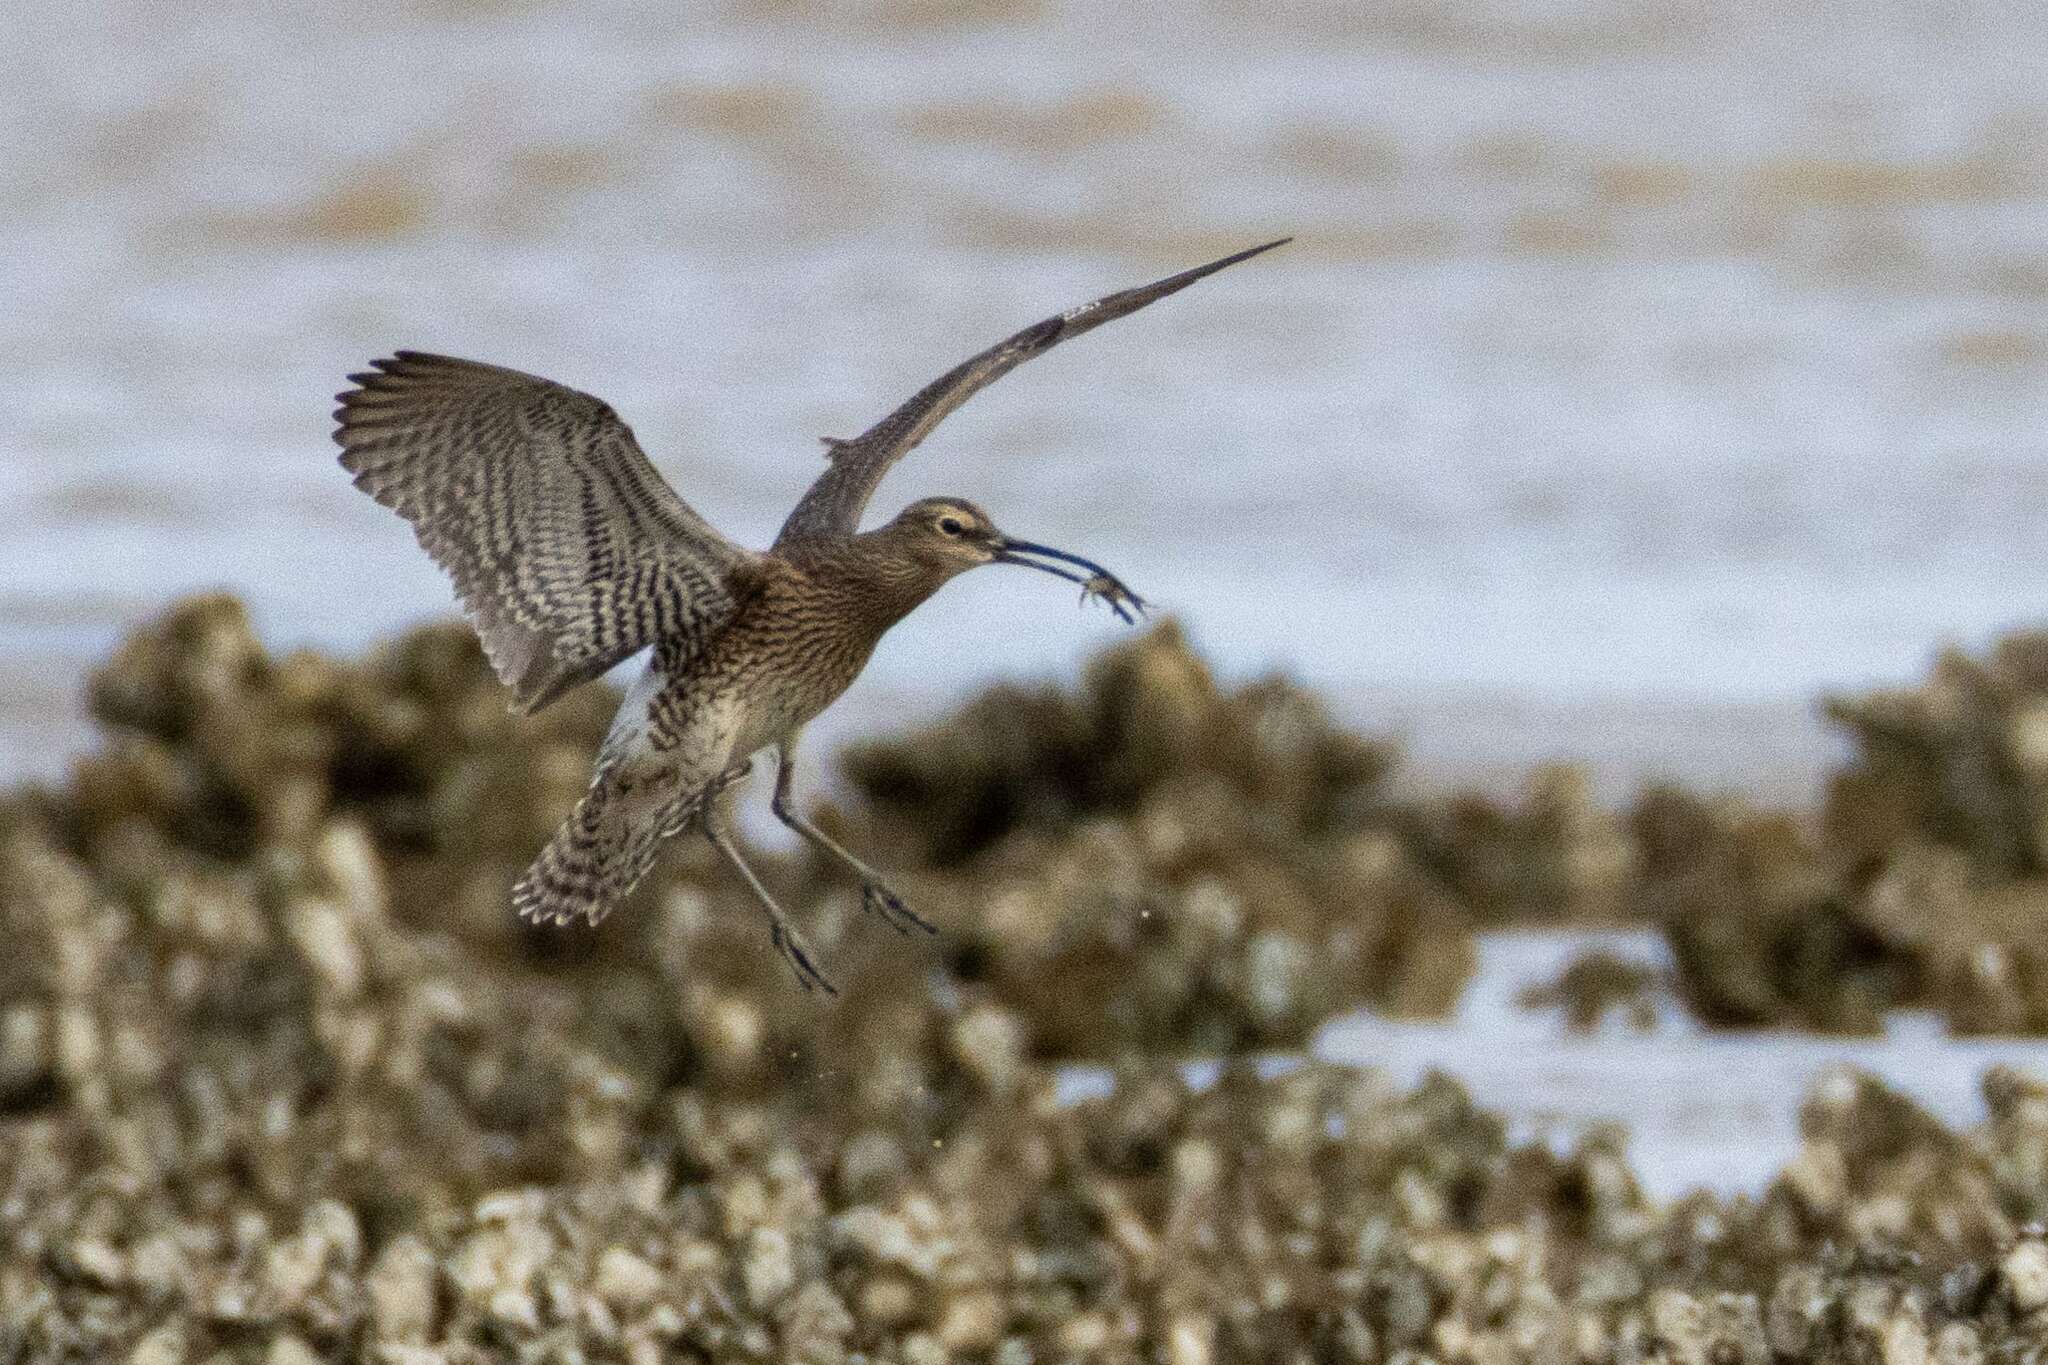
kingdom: Animalia
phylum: Chordata
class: Aves
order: Charadriiformes
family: Scolopacidae
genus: Numenius
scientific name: Numenius phaeopus
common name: Whimbrel
